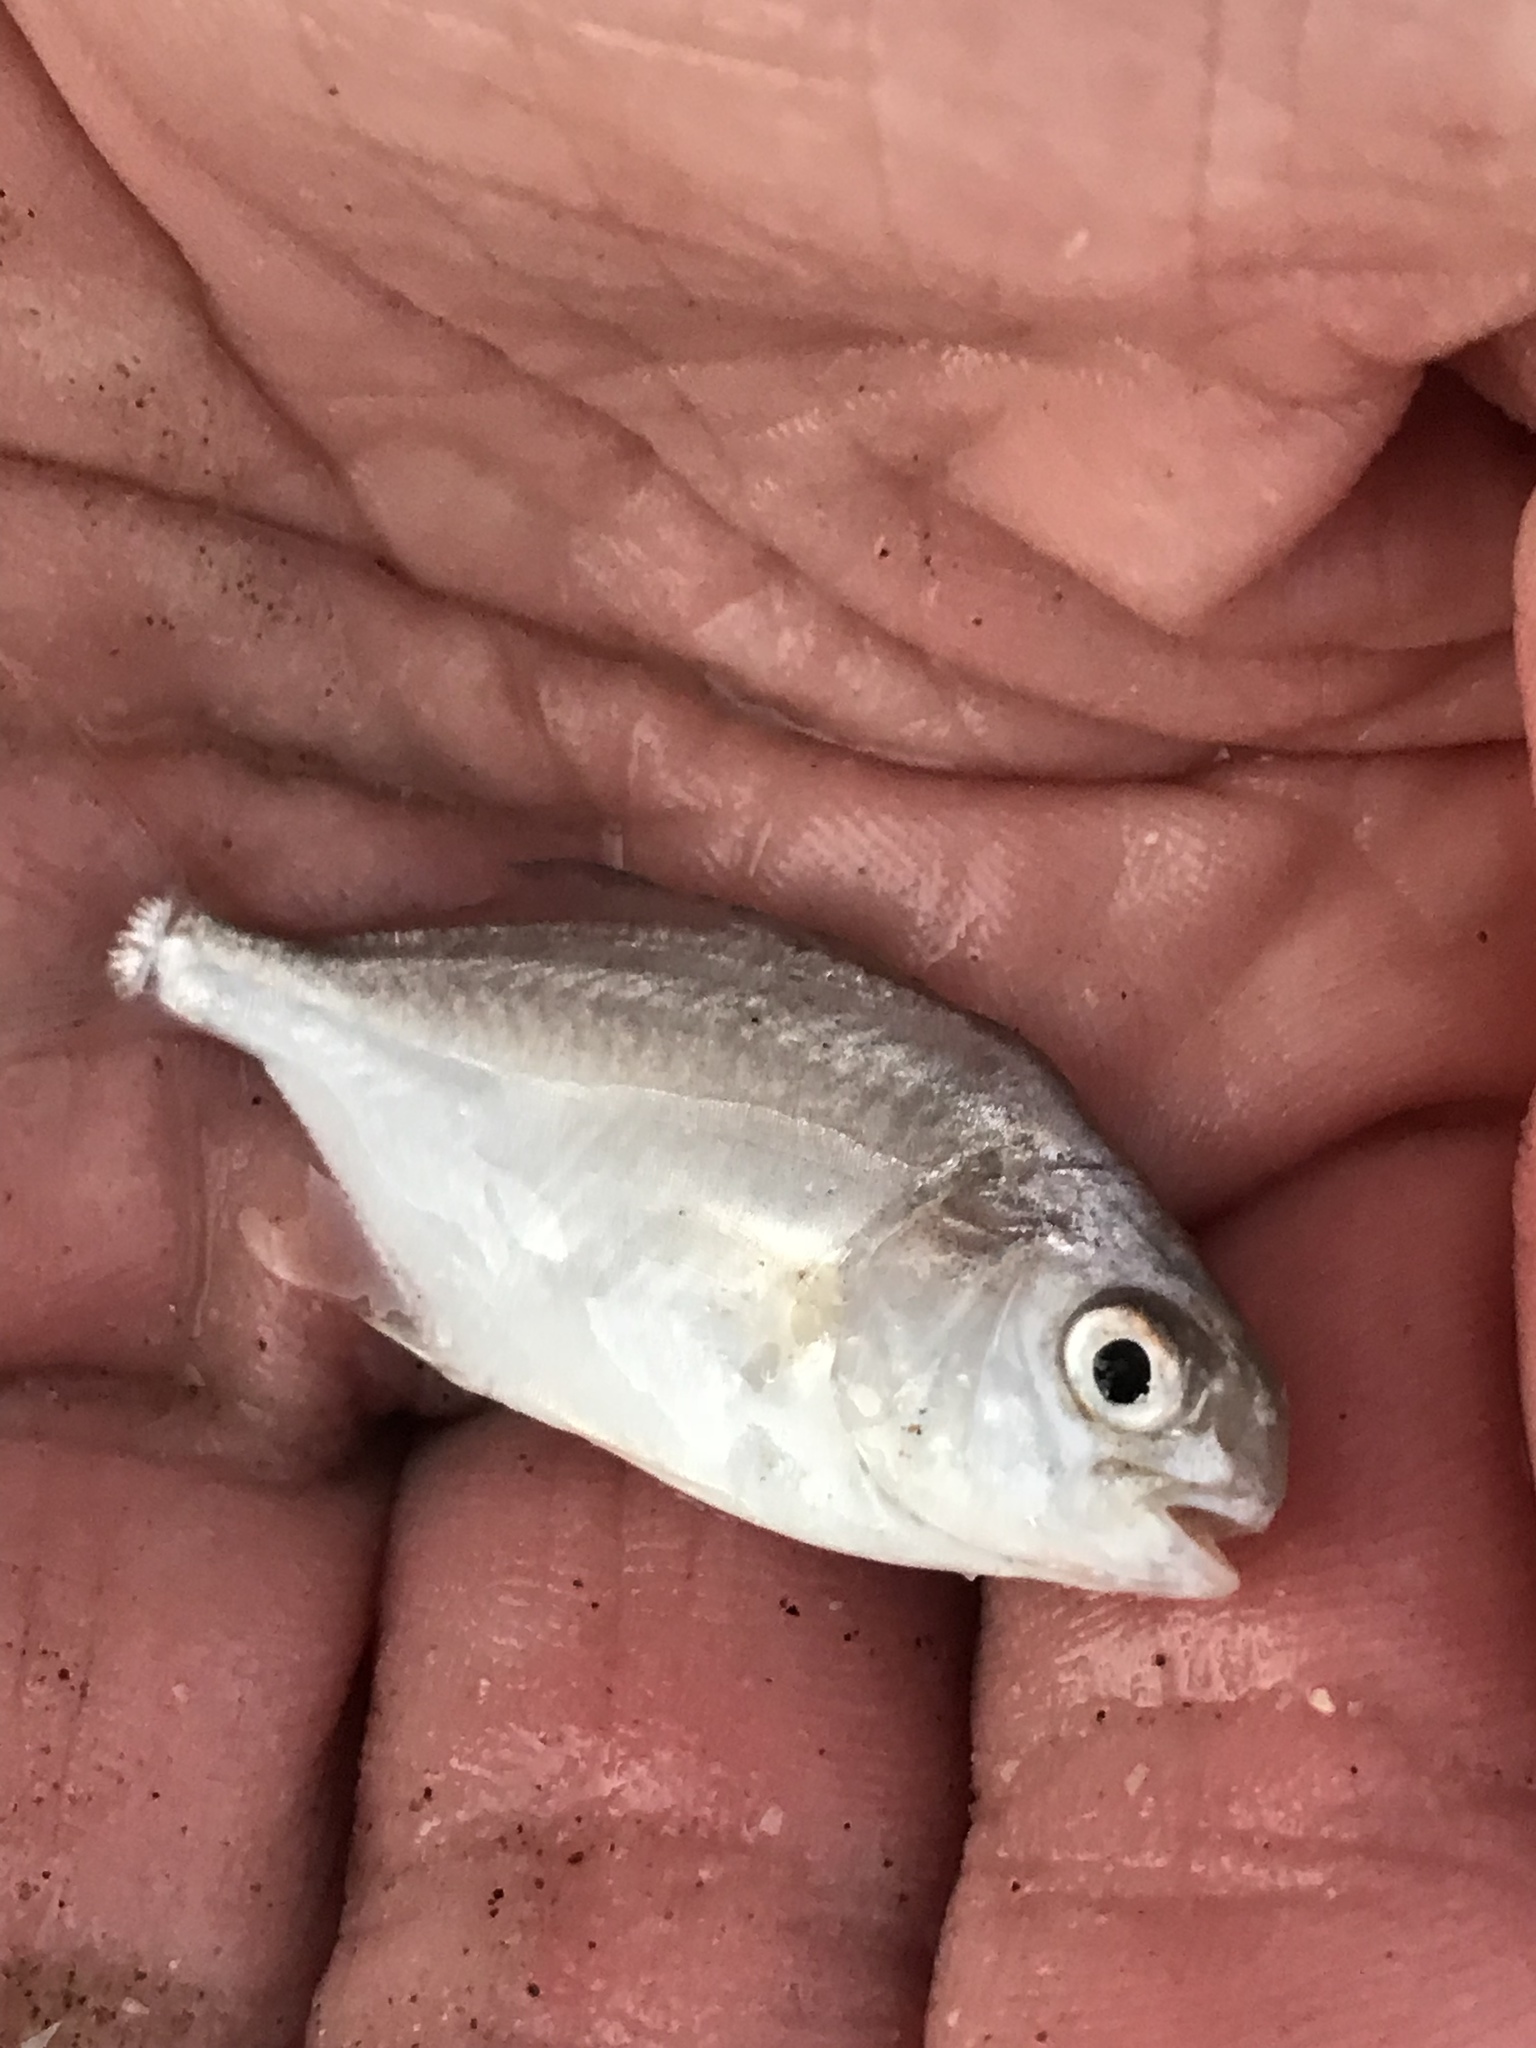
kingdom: Animalia
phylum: Chordata
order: Perciformes
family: Carangidae
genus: Trachinotus
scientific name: Trachinotus carolinus
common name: Florida pompano
